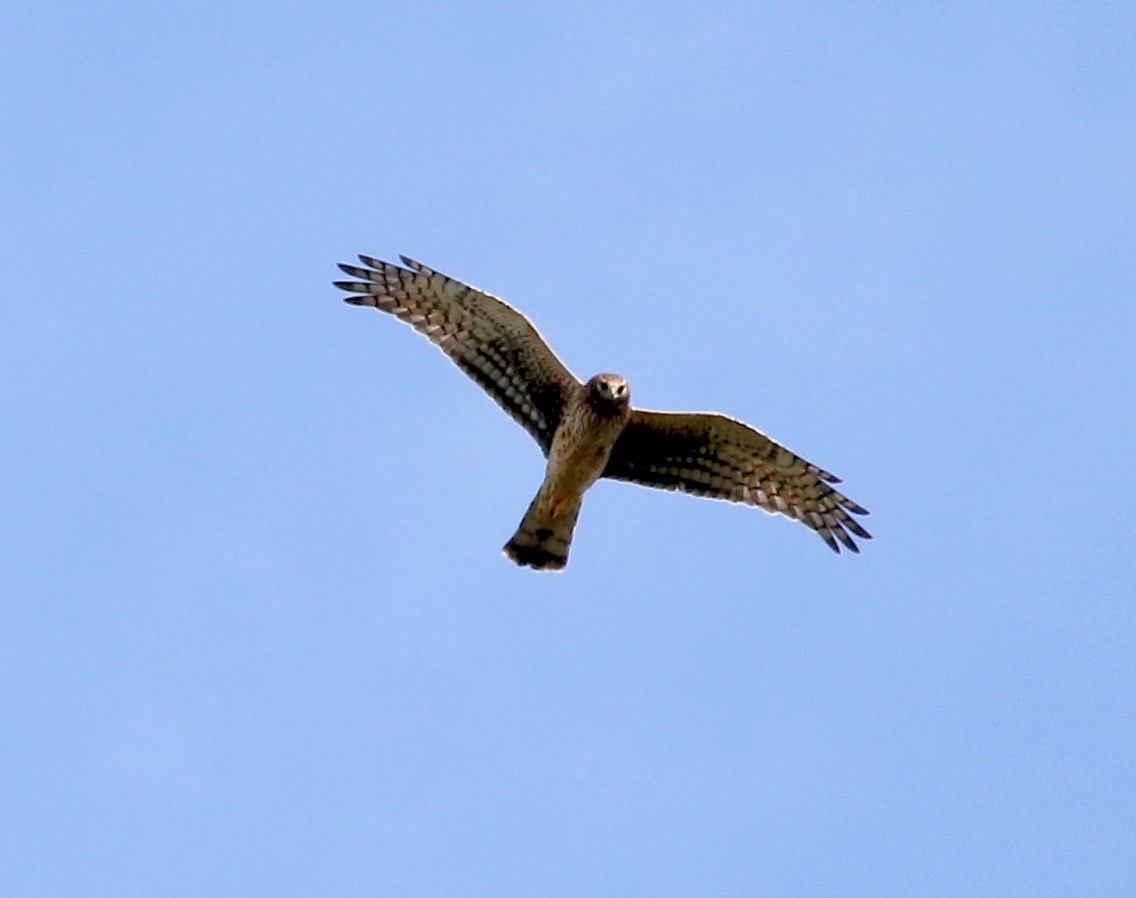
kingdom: Animalia
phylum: Chordata
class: Aves
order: Accipitriformes
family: Accipitridae
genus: Circus
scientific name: Circus cyaneus
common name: Hen harrier
